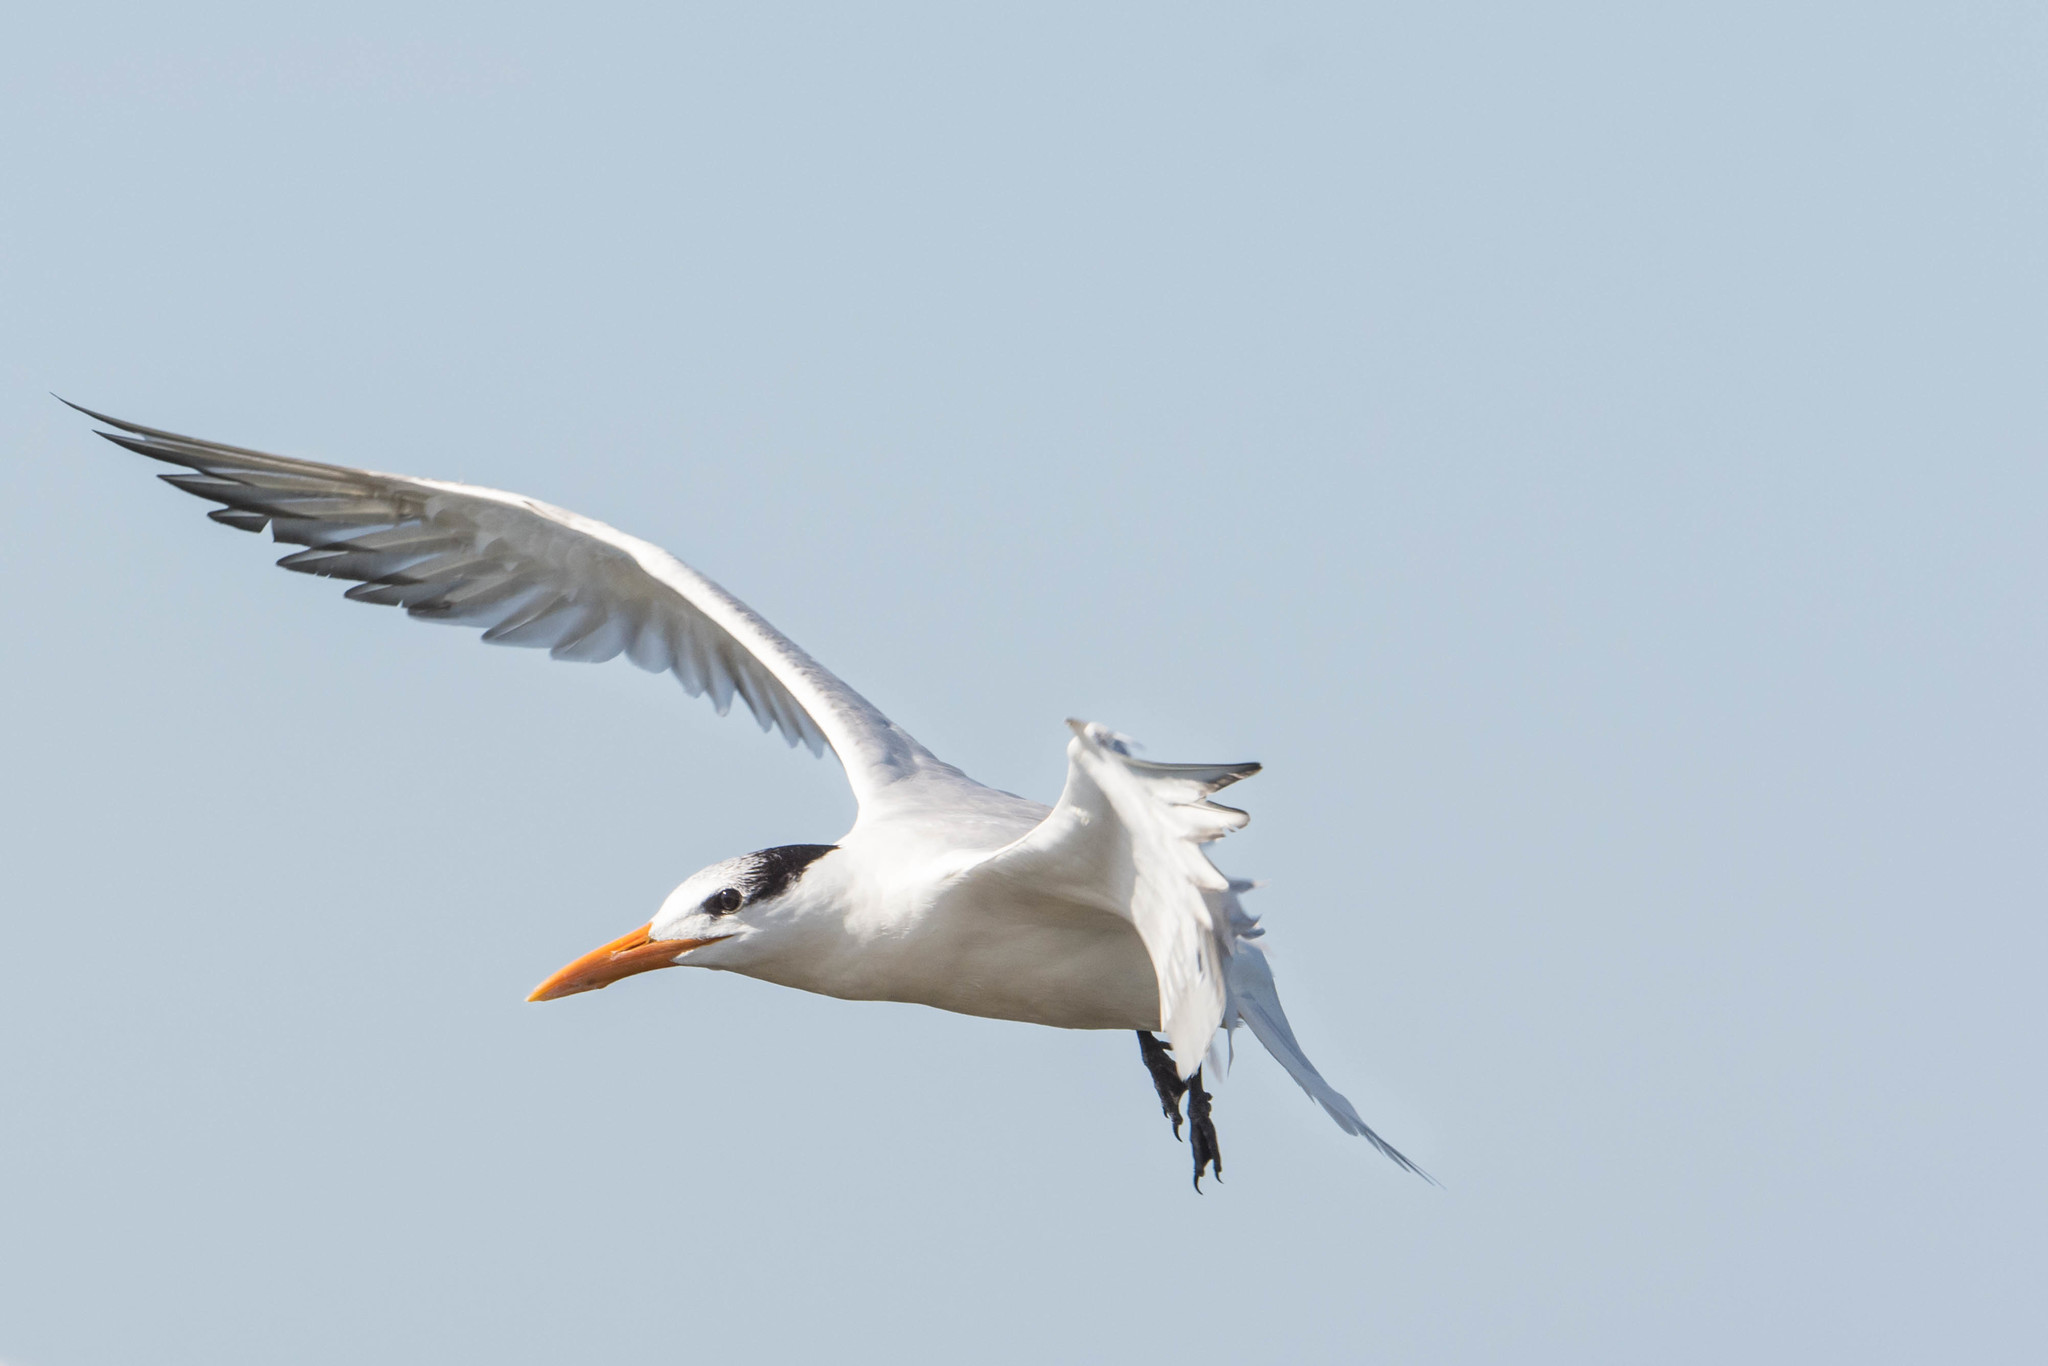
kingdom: Animalia
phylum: Chordata
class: Aves
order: Charadriiformes
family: Laridae
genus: Thalasseus
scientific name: Thalasseus maximus
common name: Royal tern
